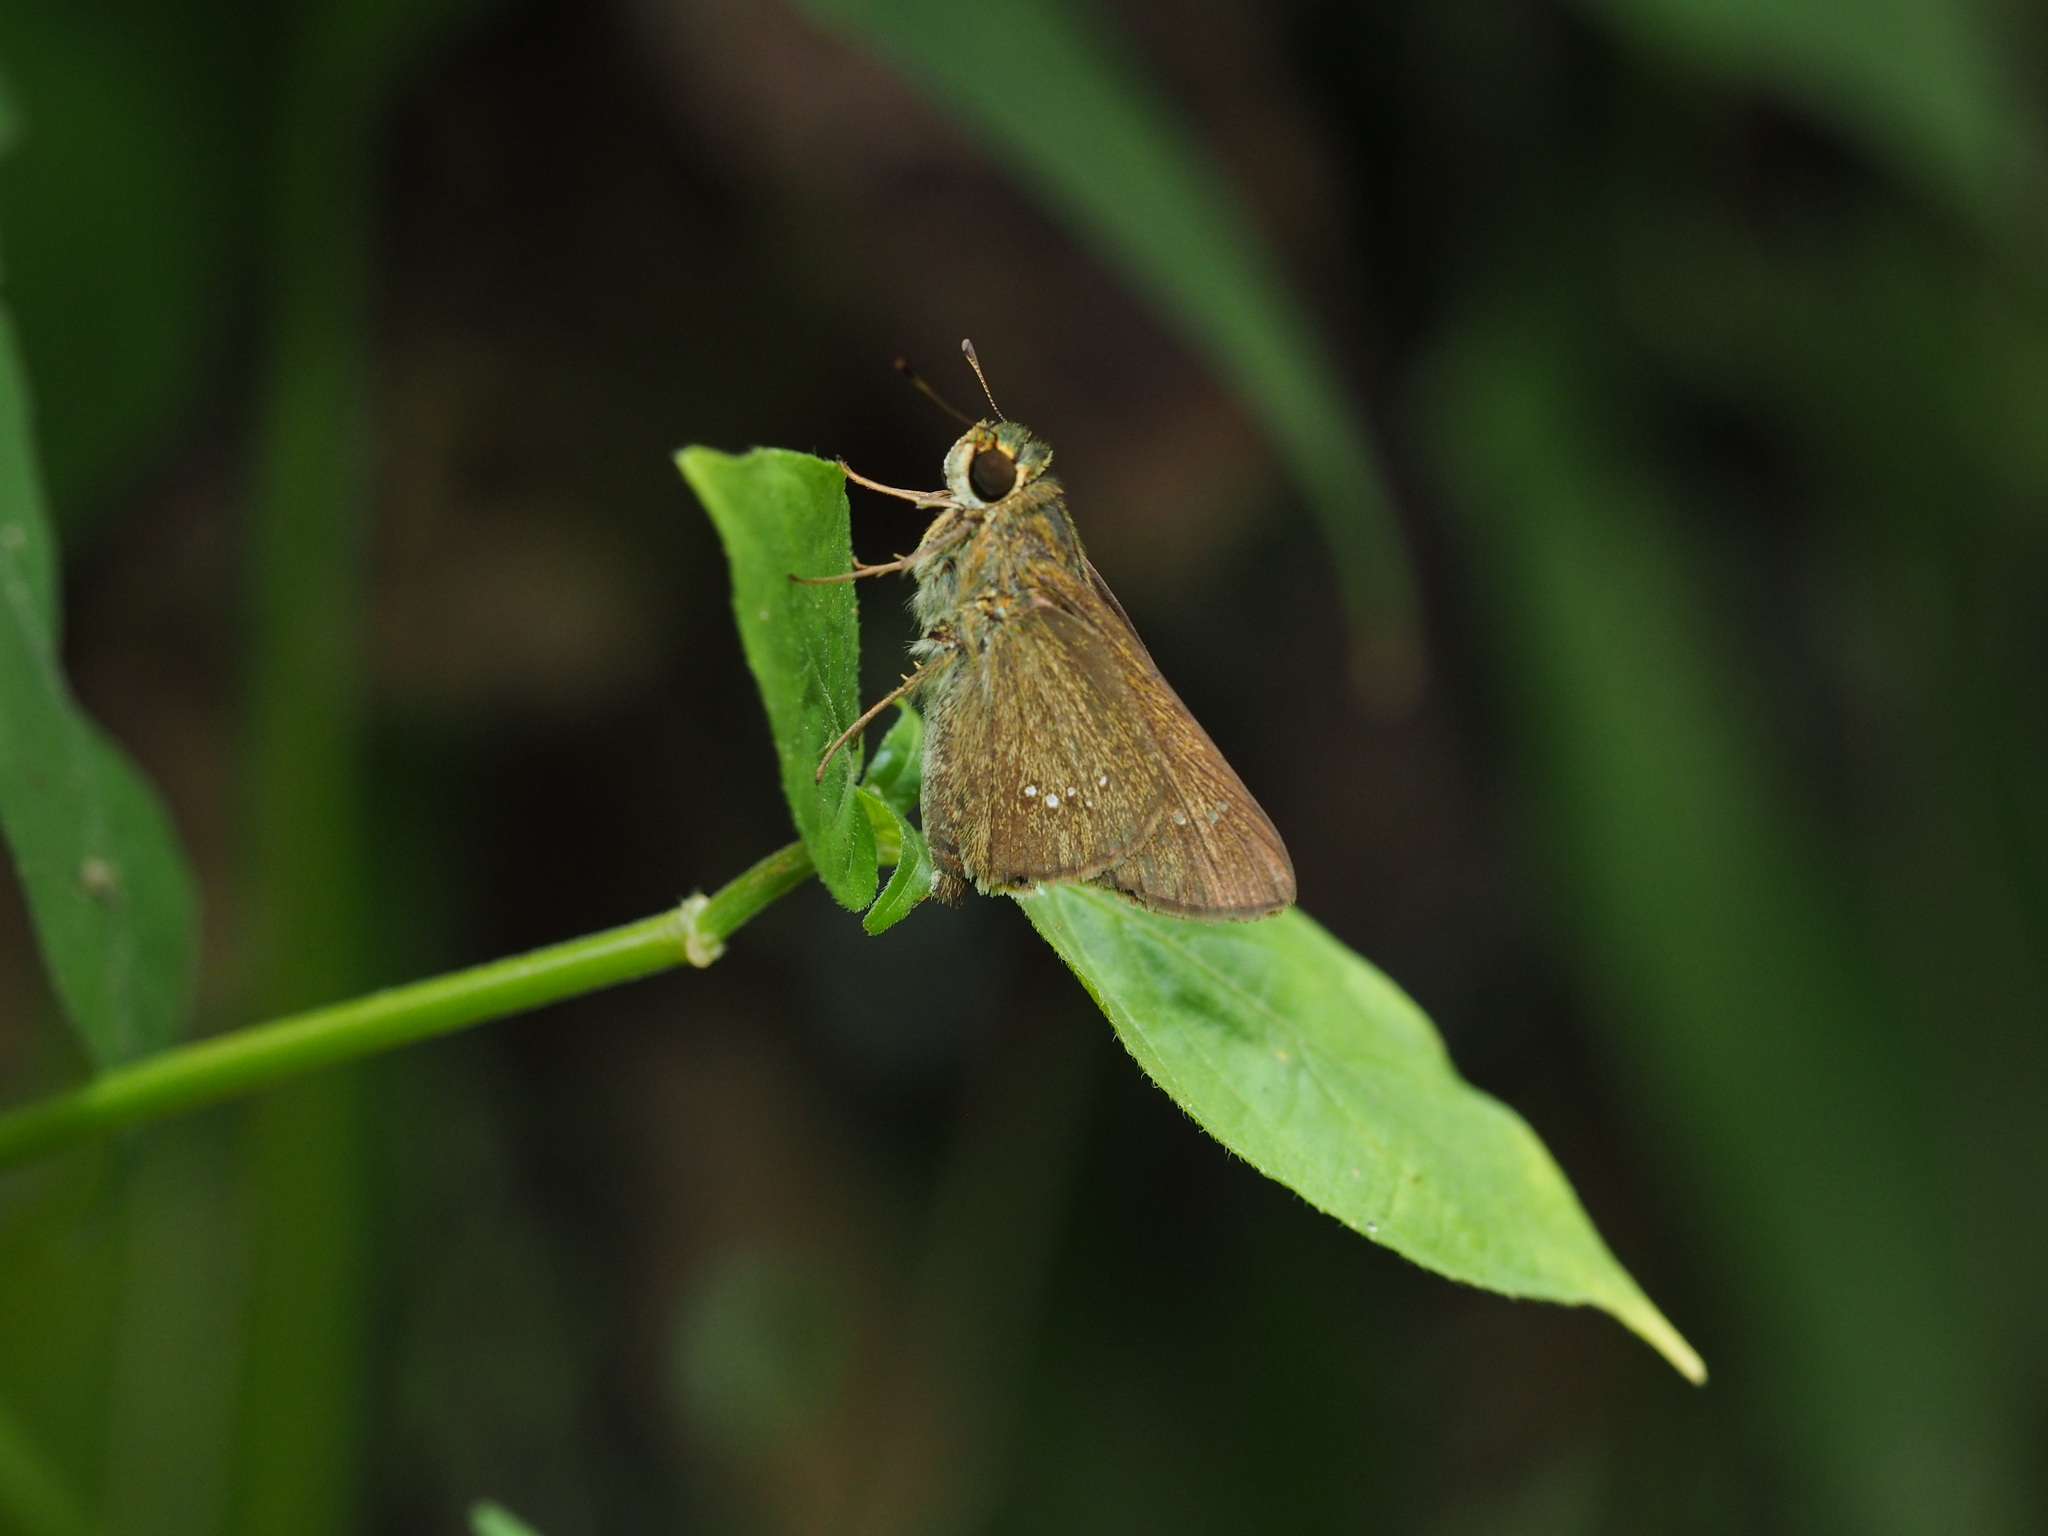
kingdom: Animalia
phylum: Arthropoda
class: Insecta
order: Lepidoptera
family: Hesperiidae
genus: Parnara
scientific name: Parnara naso
